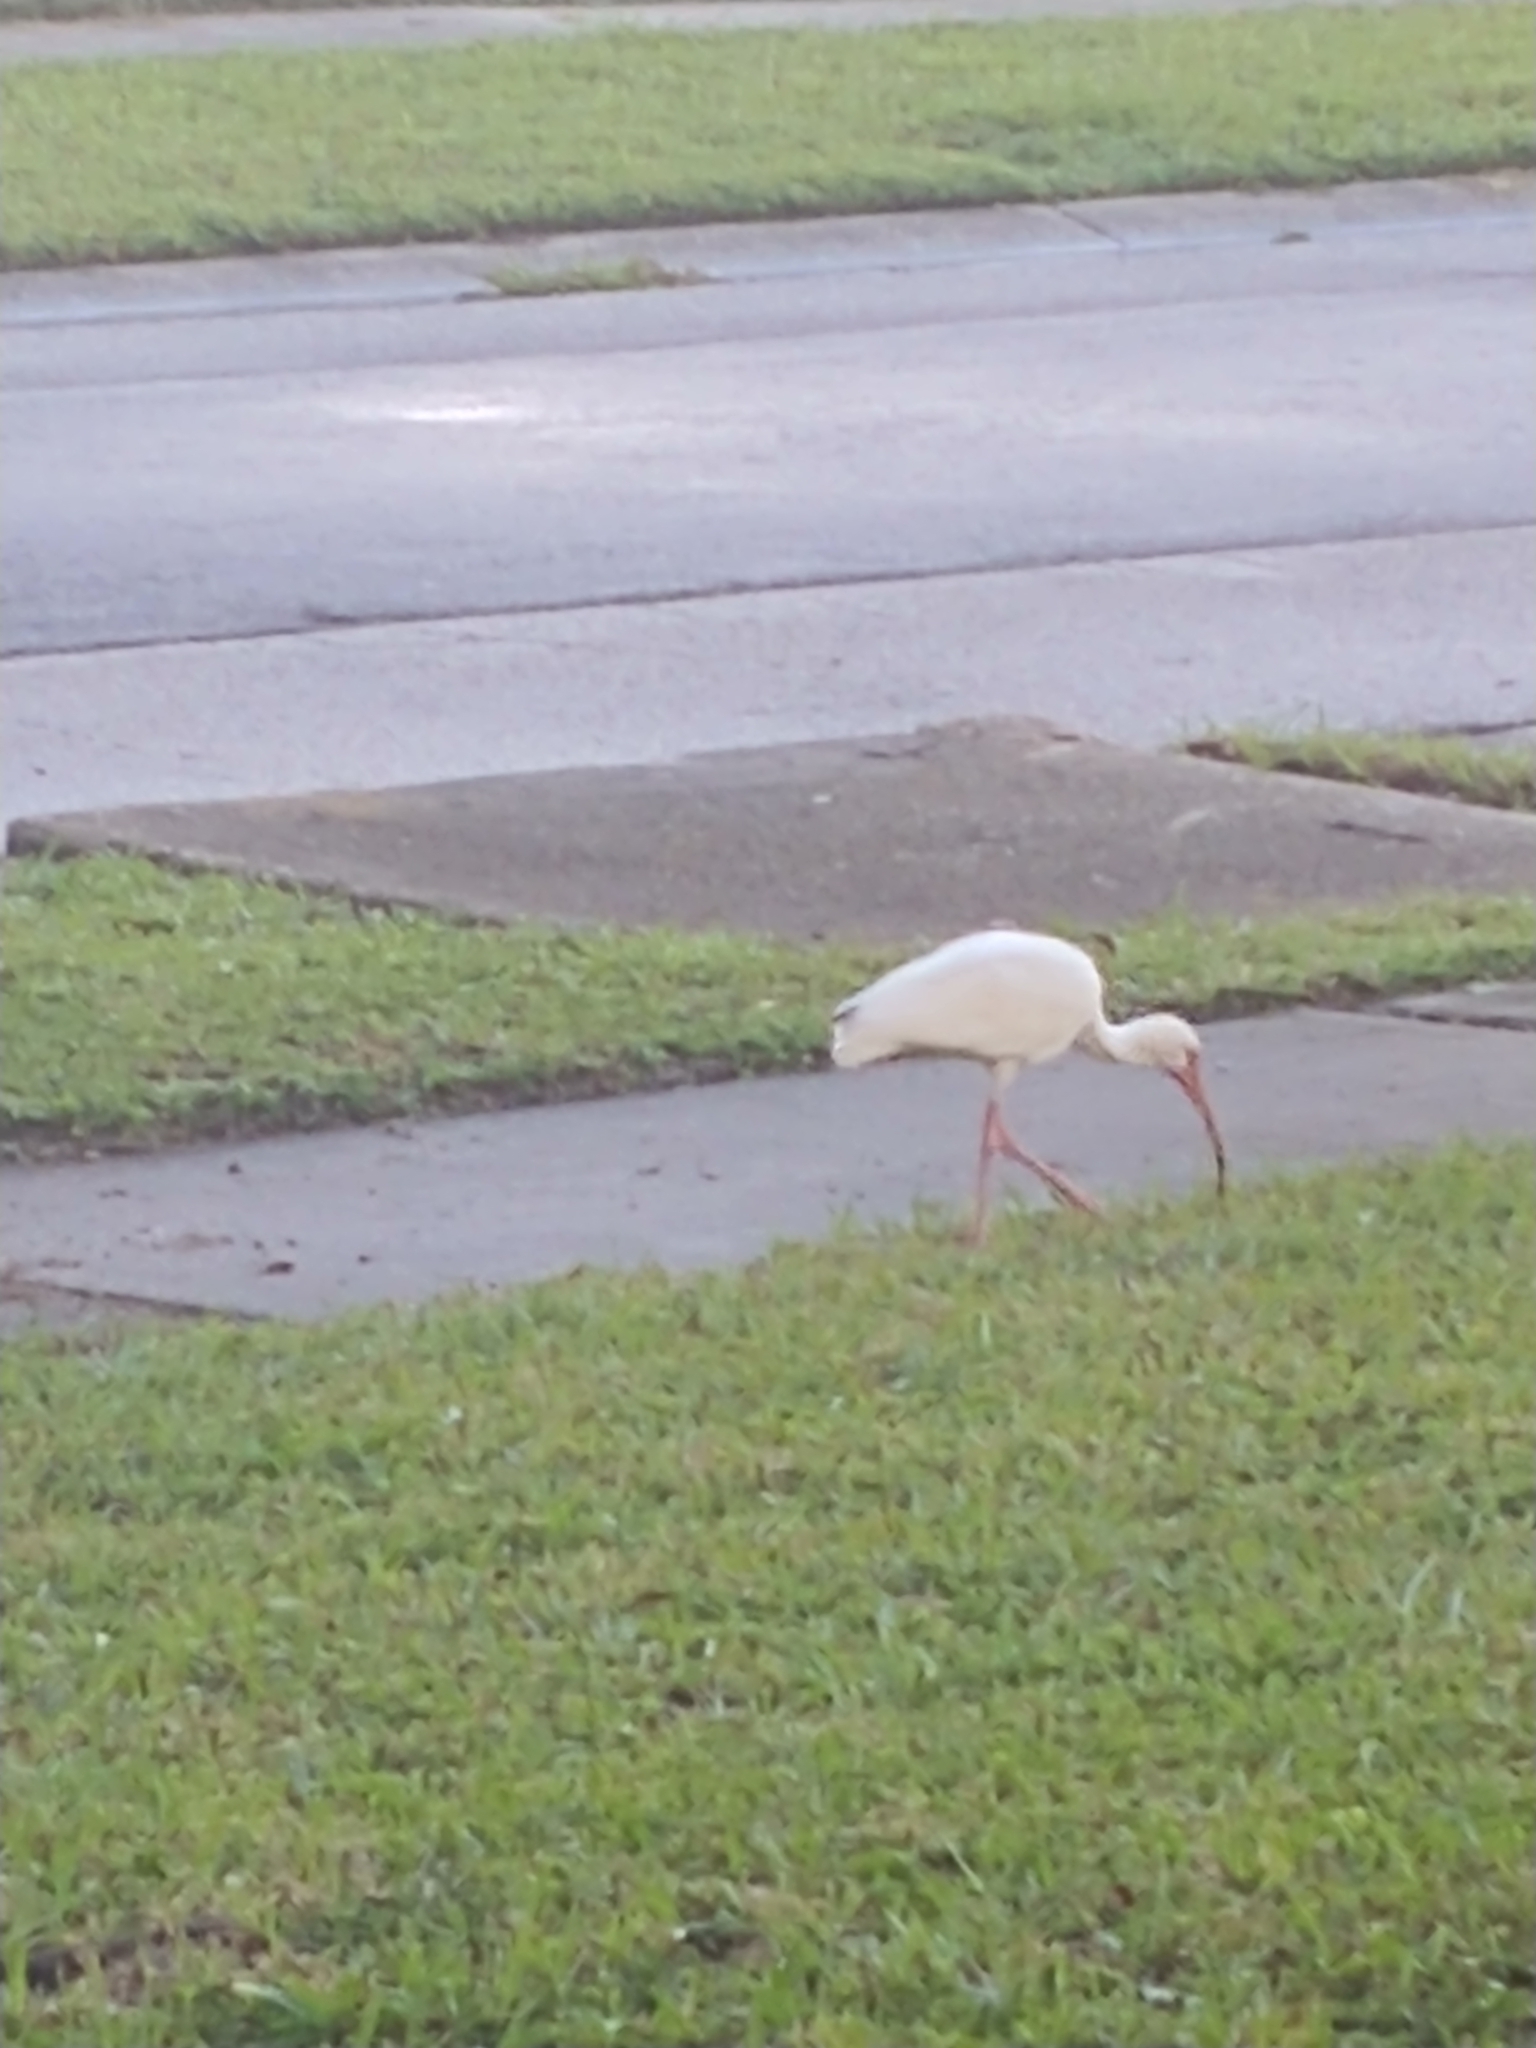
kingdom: Animalia
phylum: Chordata
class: Aves
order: Pelecaniformes
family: Threskiornithidae
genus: Eudocimus
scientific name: Eudocimus albus
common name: White ibis
